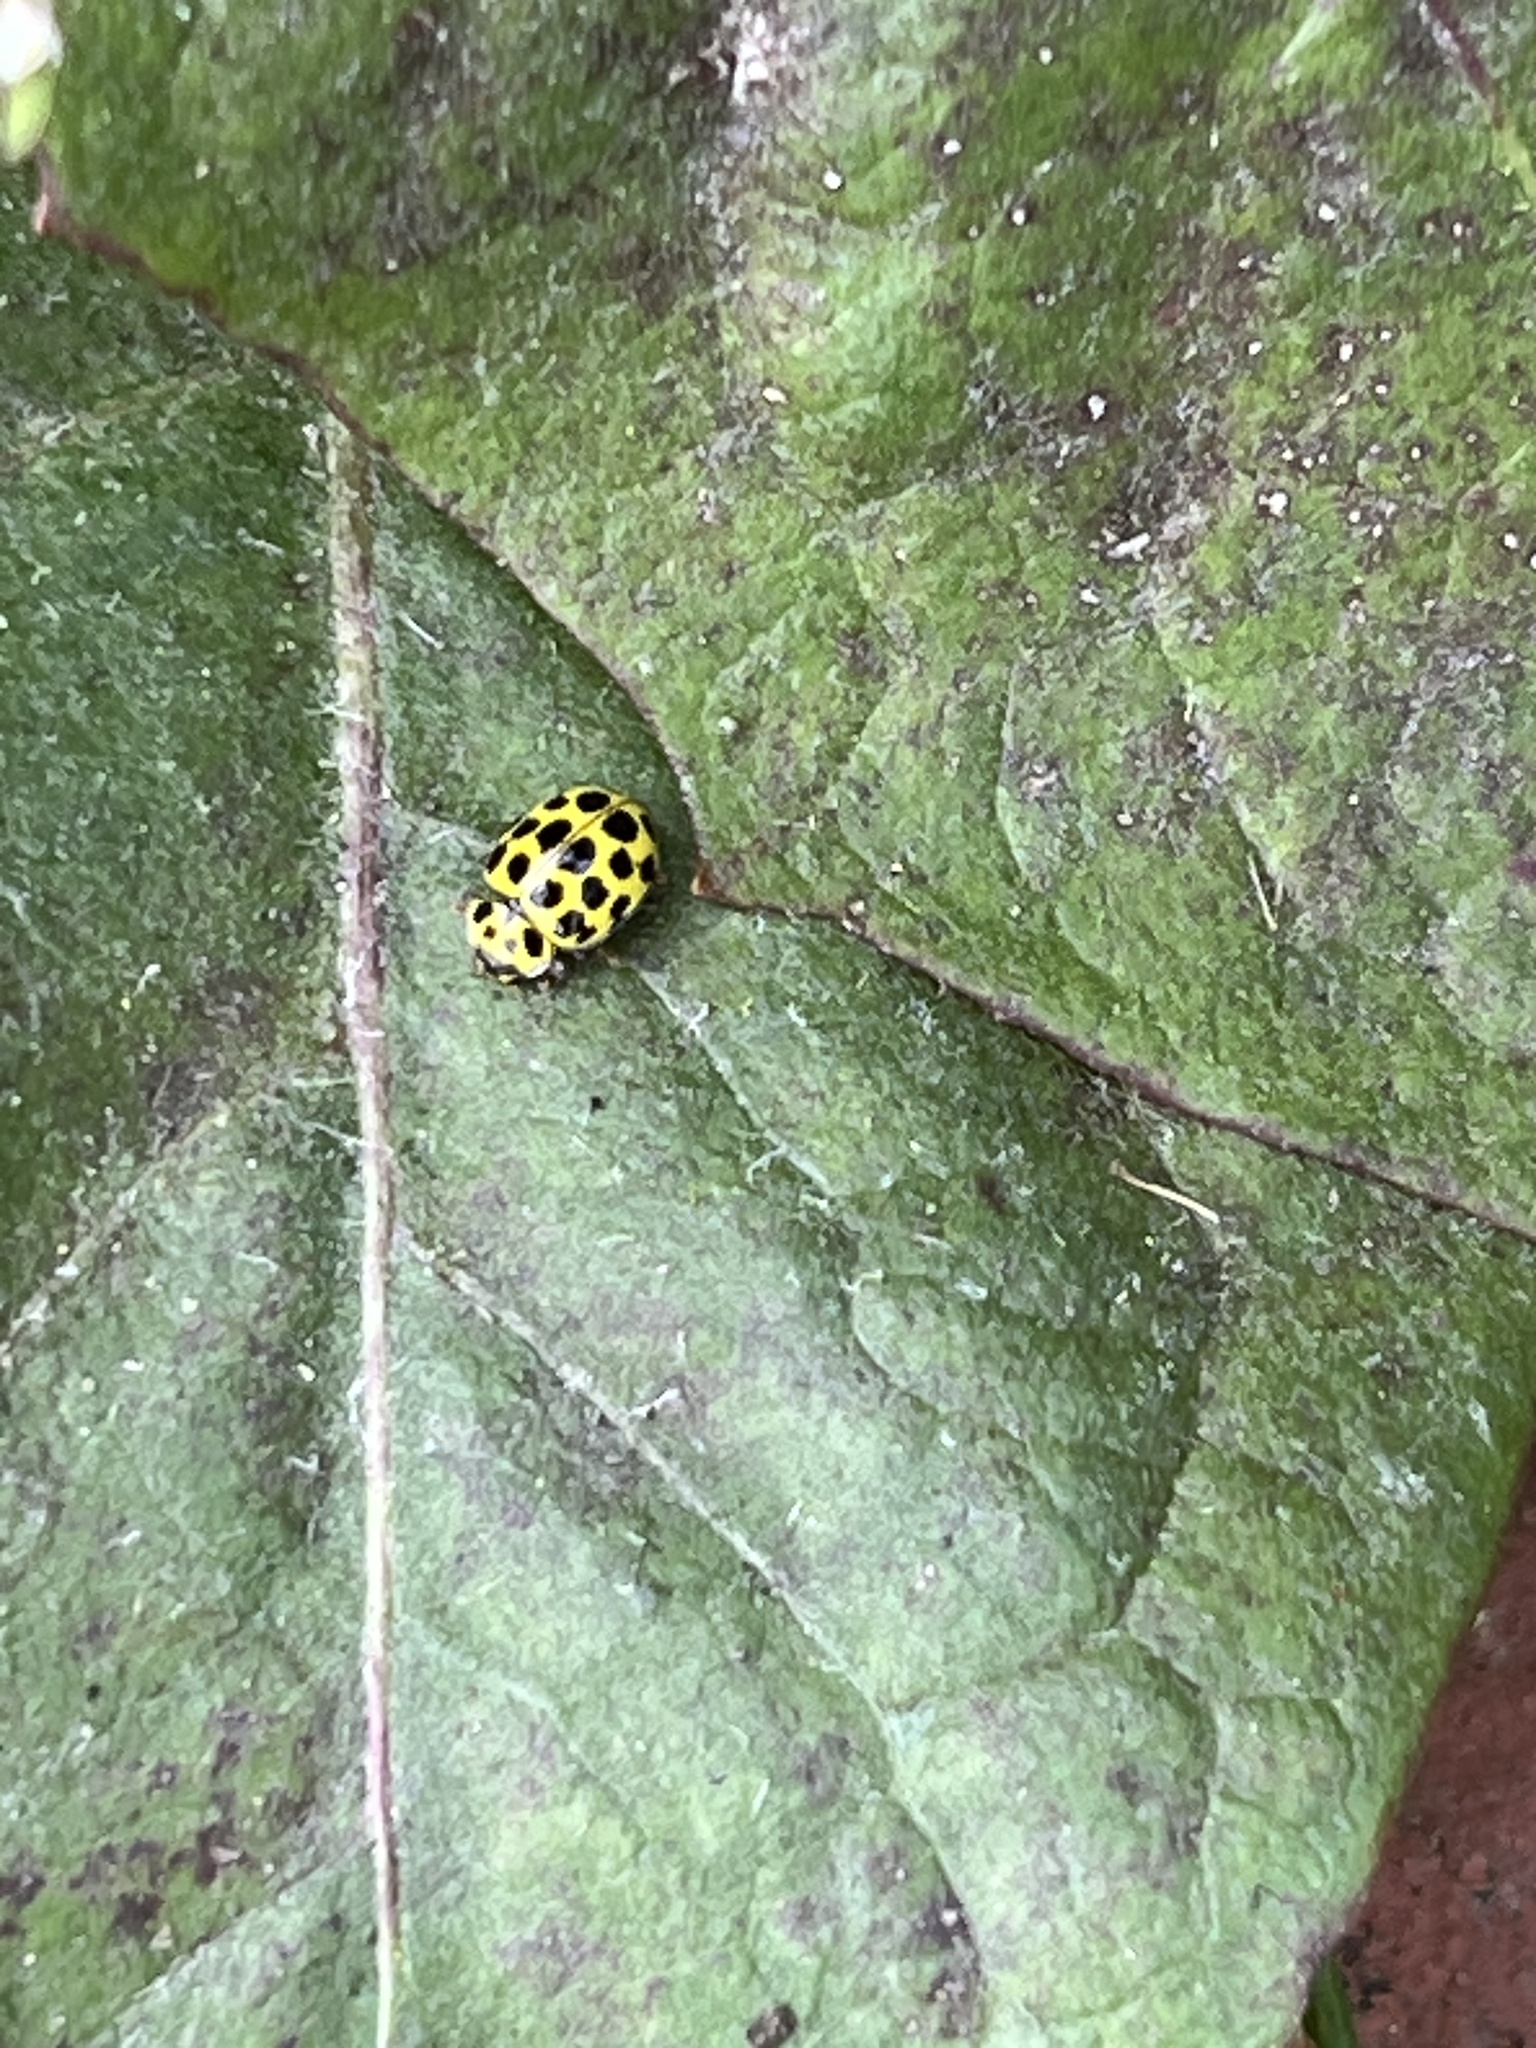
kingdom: Animalia
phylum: Arthropoda
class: Insecta
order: Coleoptera
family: Coccinellidae
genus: Psyllobora
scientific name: Psyllobora vigintiduopunctata
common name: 22-spot ladybird
